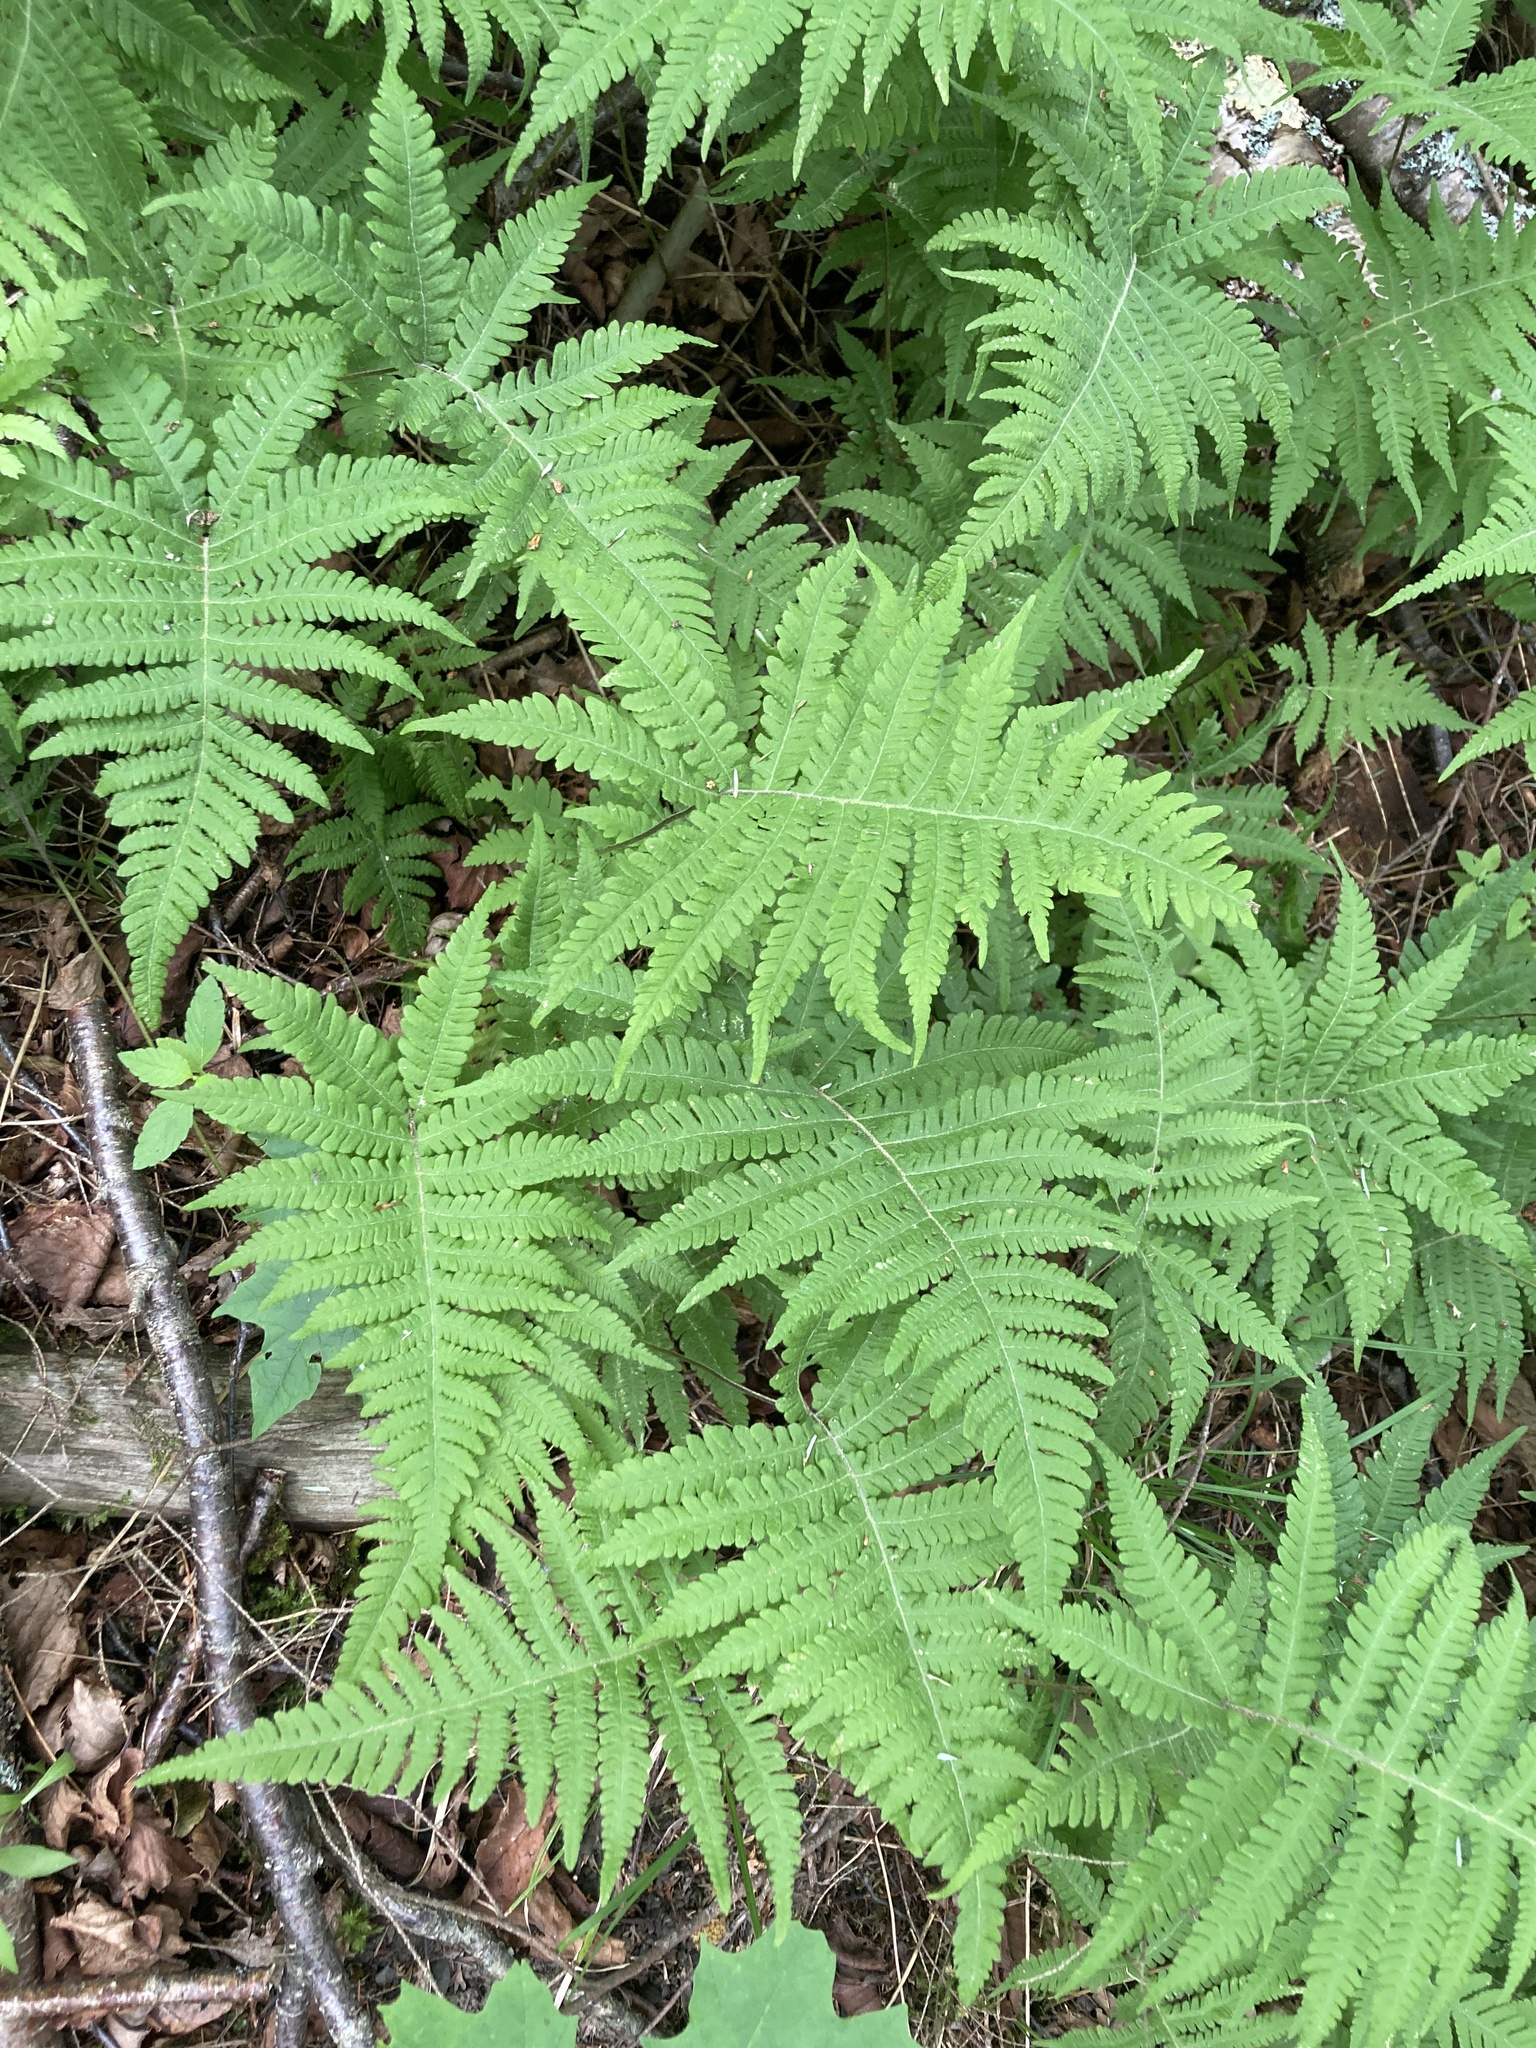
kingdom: Plantae
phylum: Tracheophyta
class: Polypodiopsida
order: Polypodiales
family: Thelypteridaceae
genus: Phegopteris
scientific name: Phegopteris connectilis
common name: Beech fern
